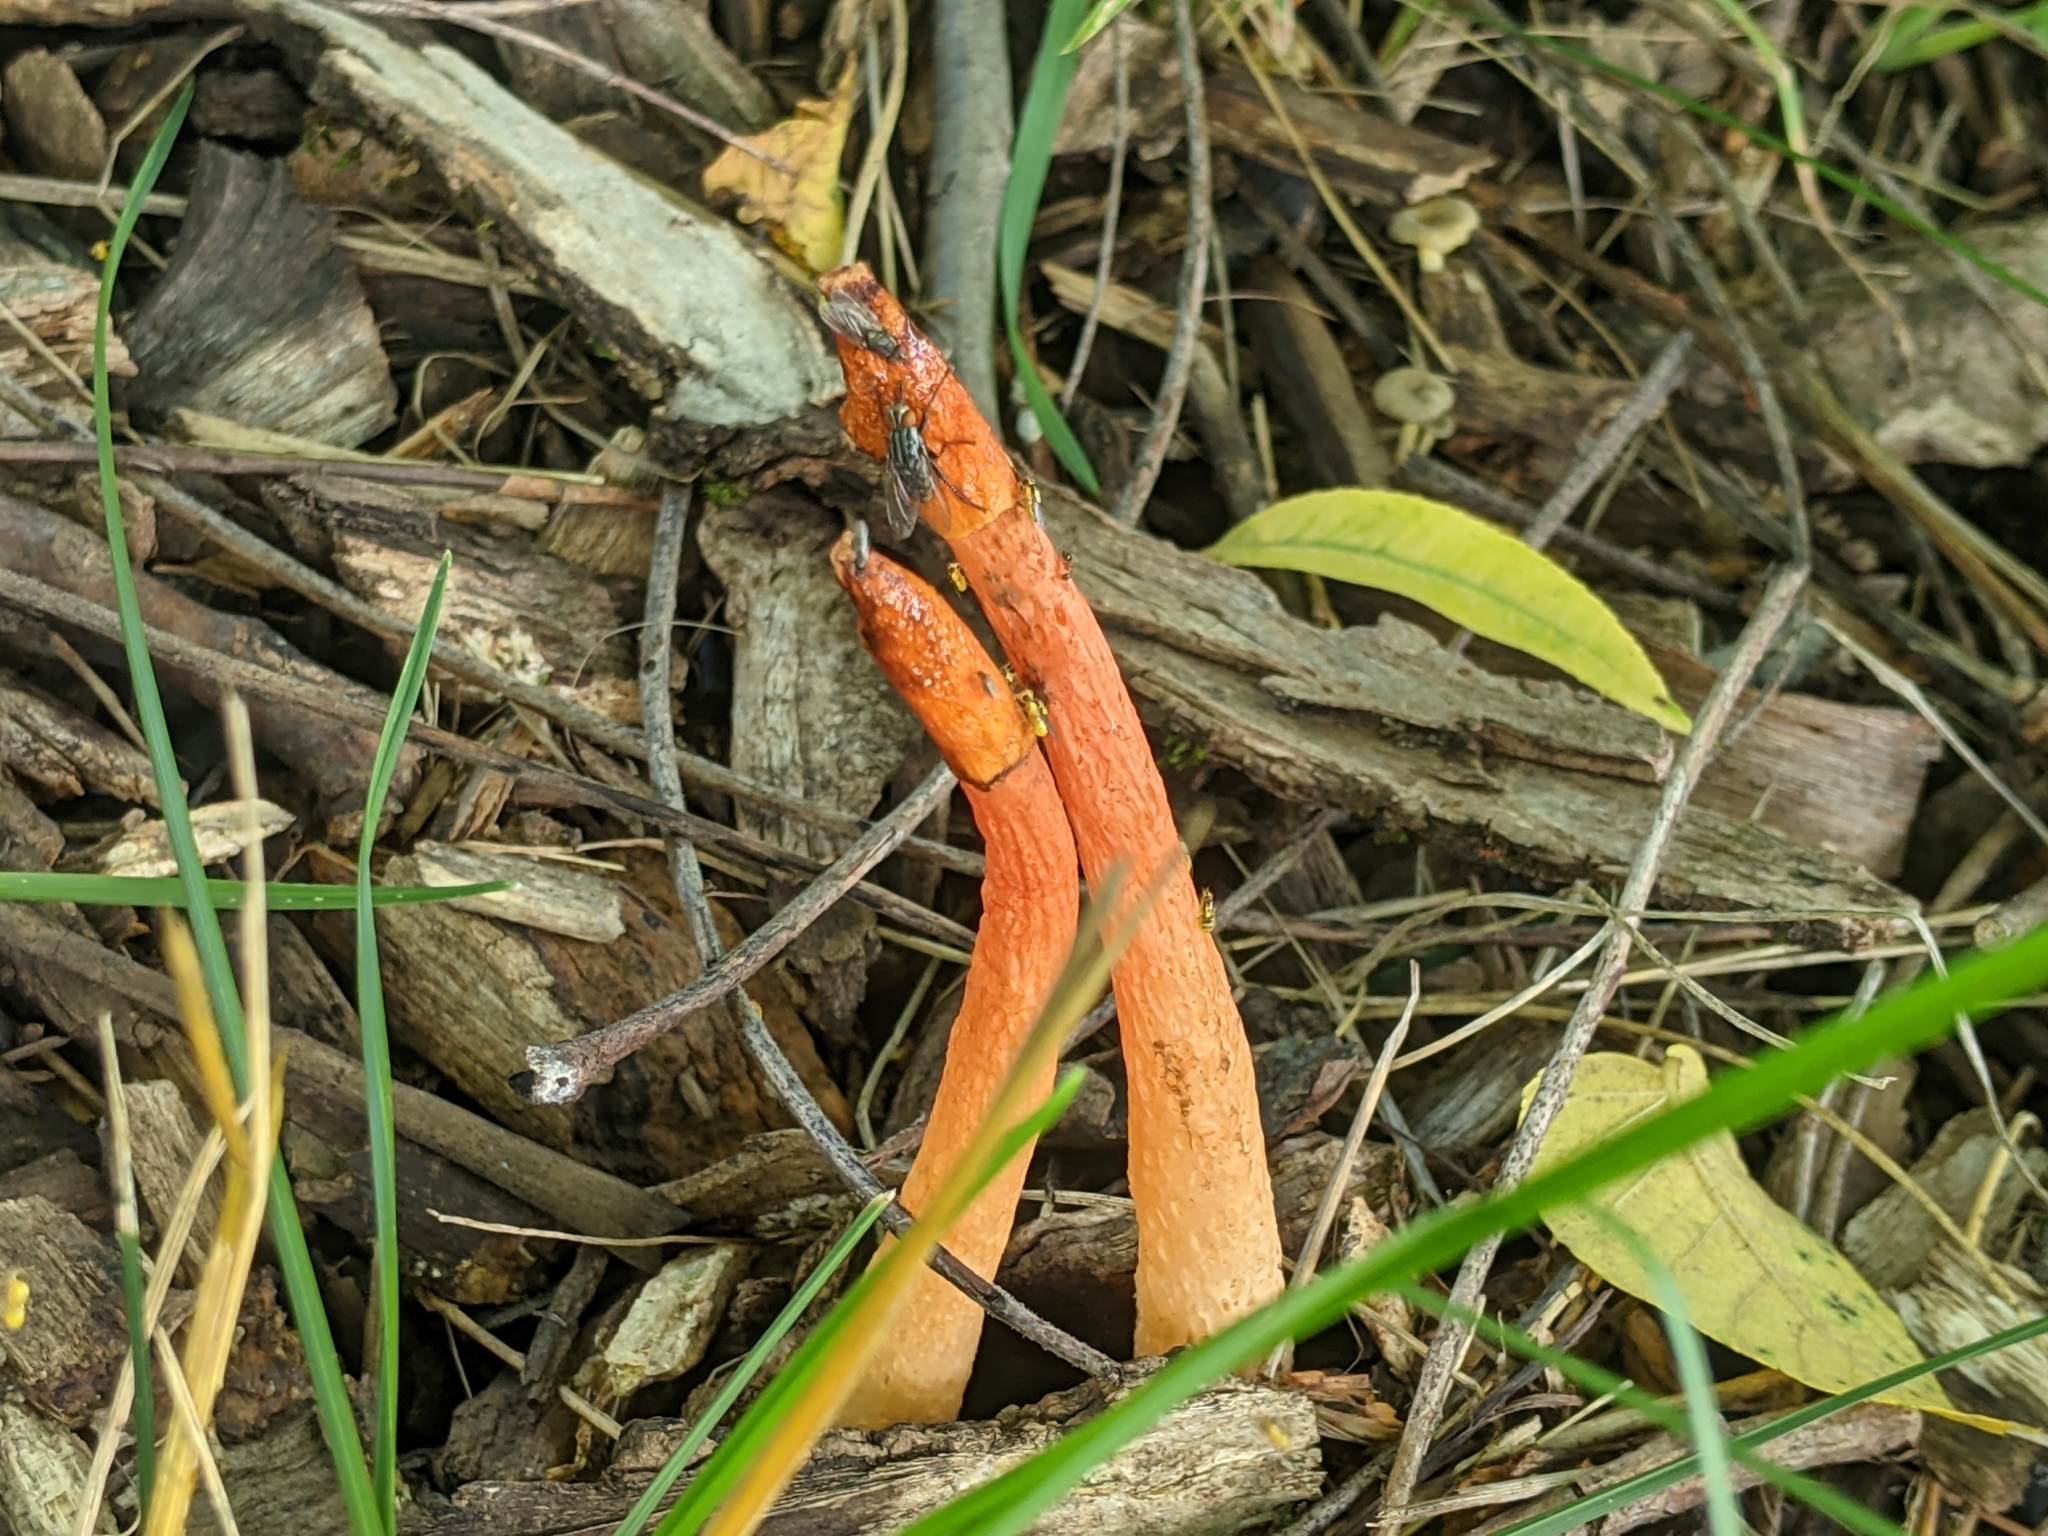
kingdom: Fungi
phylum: Basidiomycota
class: Agaricomycetes
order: Phallales
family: Phallaceae
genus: Phallus
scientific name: Phallus rugulosus
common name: Wrinkly stinkhorn
